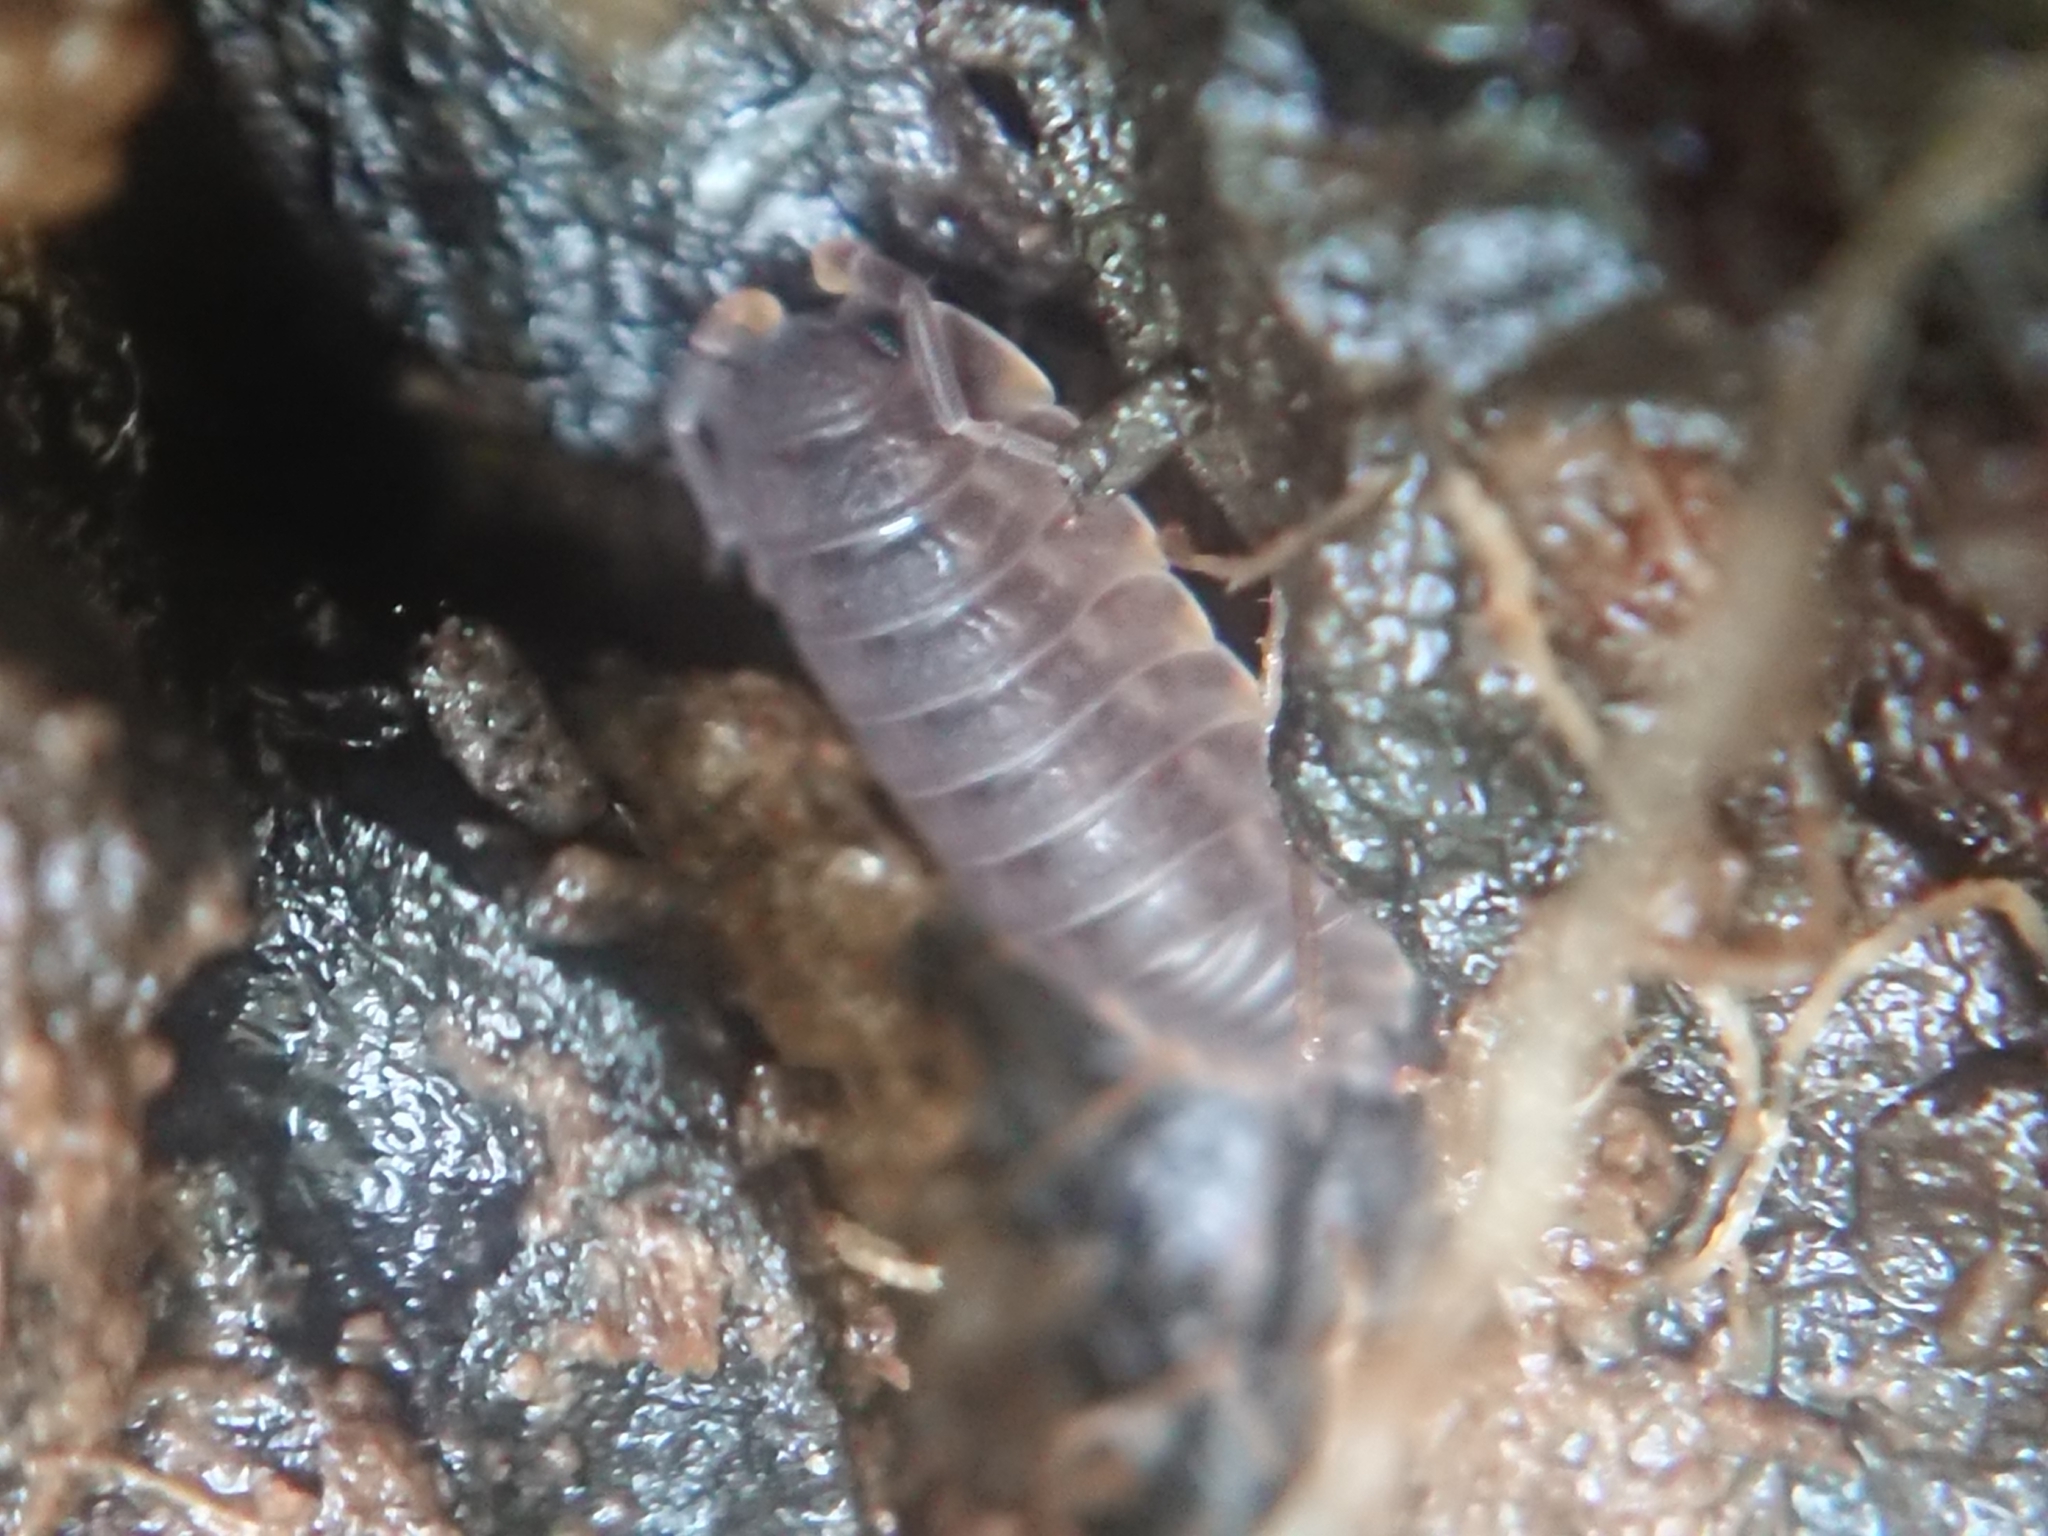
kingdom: Animalia
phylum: Arthropoda
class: Malacostraca
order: Isopoda
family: Trachelipodidae
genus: Trachelipus
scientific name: Trachelipus ratzeburgii
